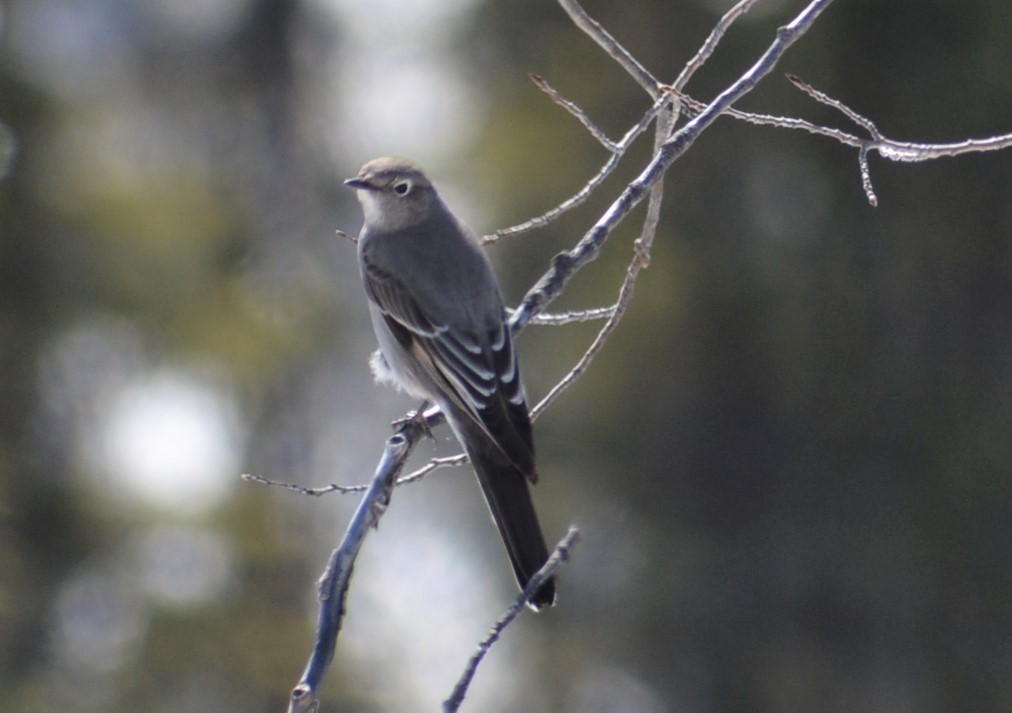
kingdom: Animalia
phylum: Chordata
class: Aves
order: Passeriformes
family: Turdidae
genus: Myadestes
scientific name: Myadestes townsendi
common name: Townsend's solitaire
